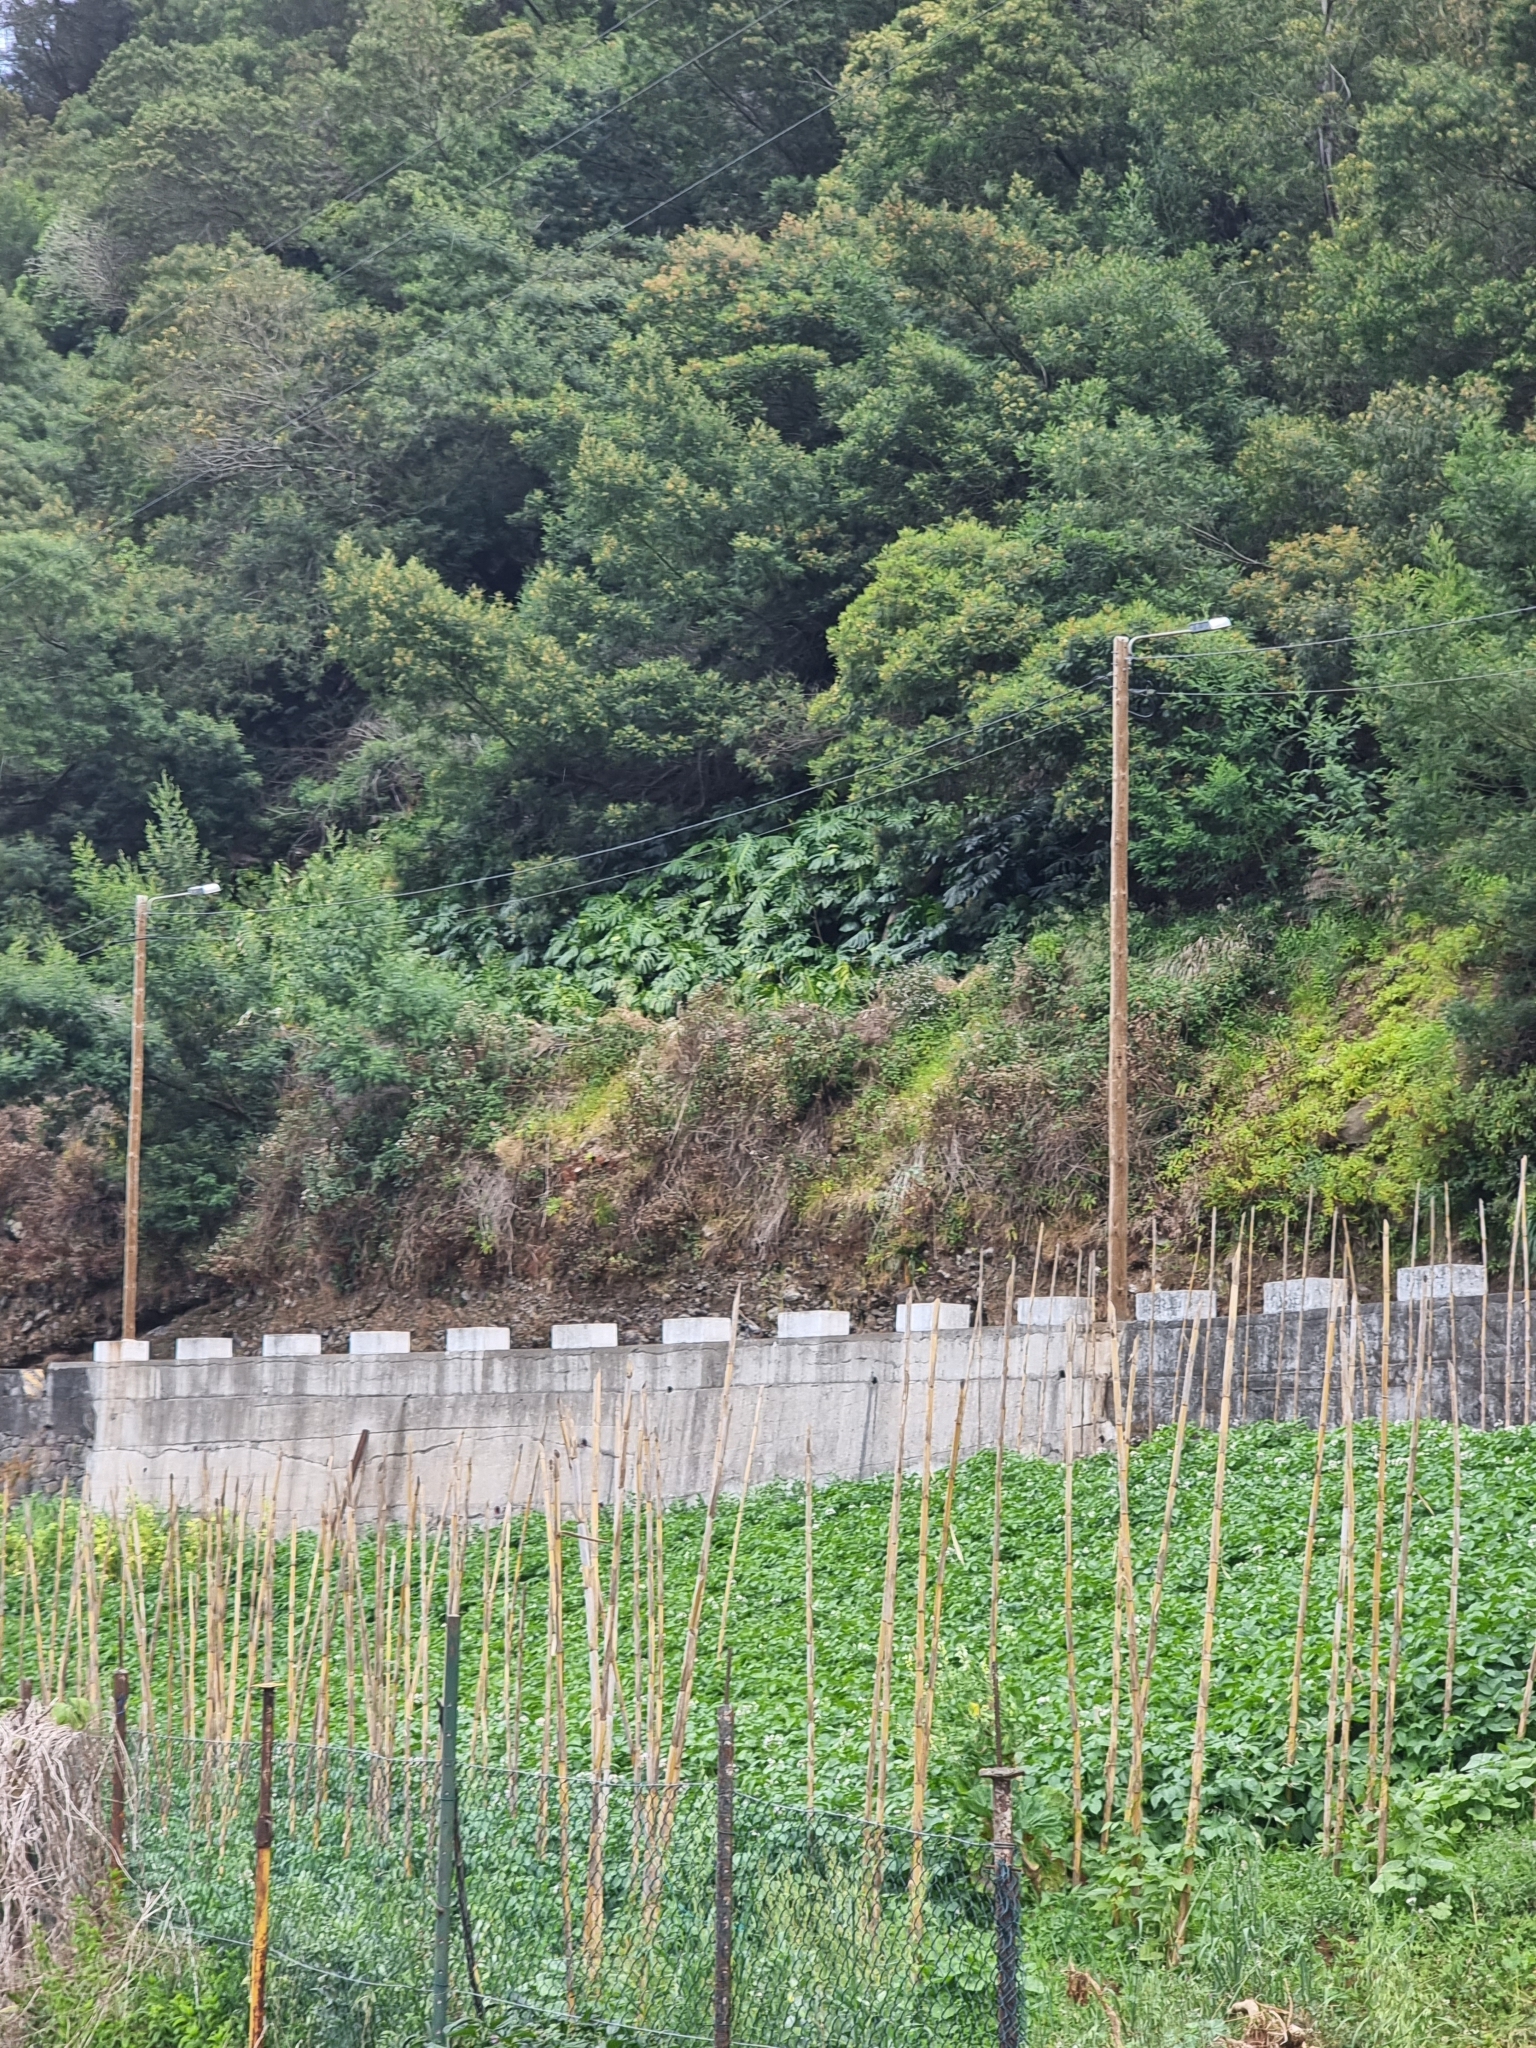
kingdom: Plantae
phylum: Tracheophyta
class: Liliopsida
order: Alismatales
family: Araceae
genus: Monstera
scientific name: Monstera deliciosa
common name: Cut-leaf-philodendron
